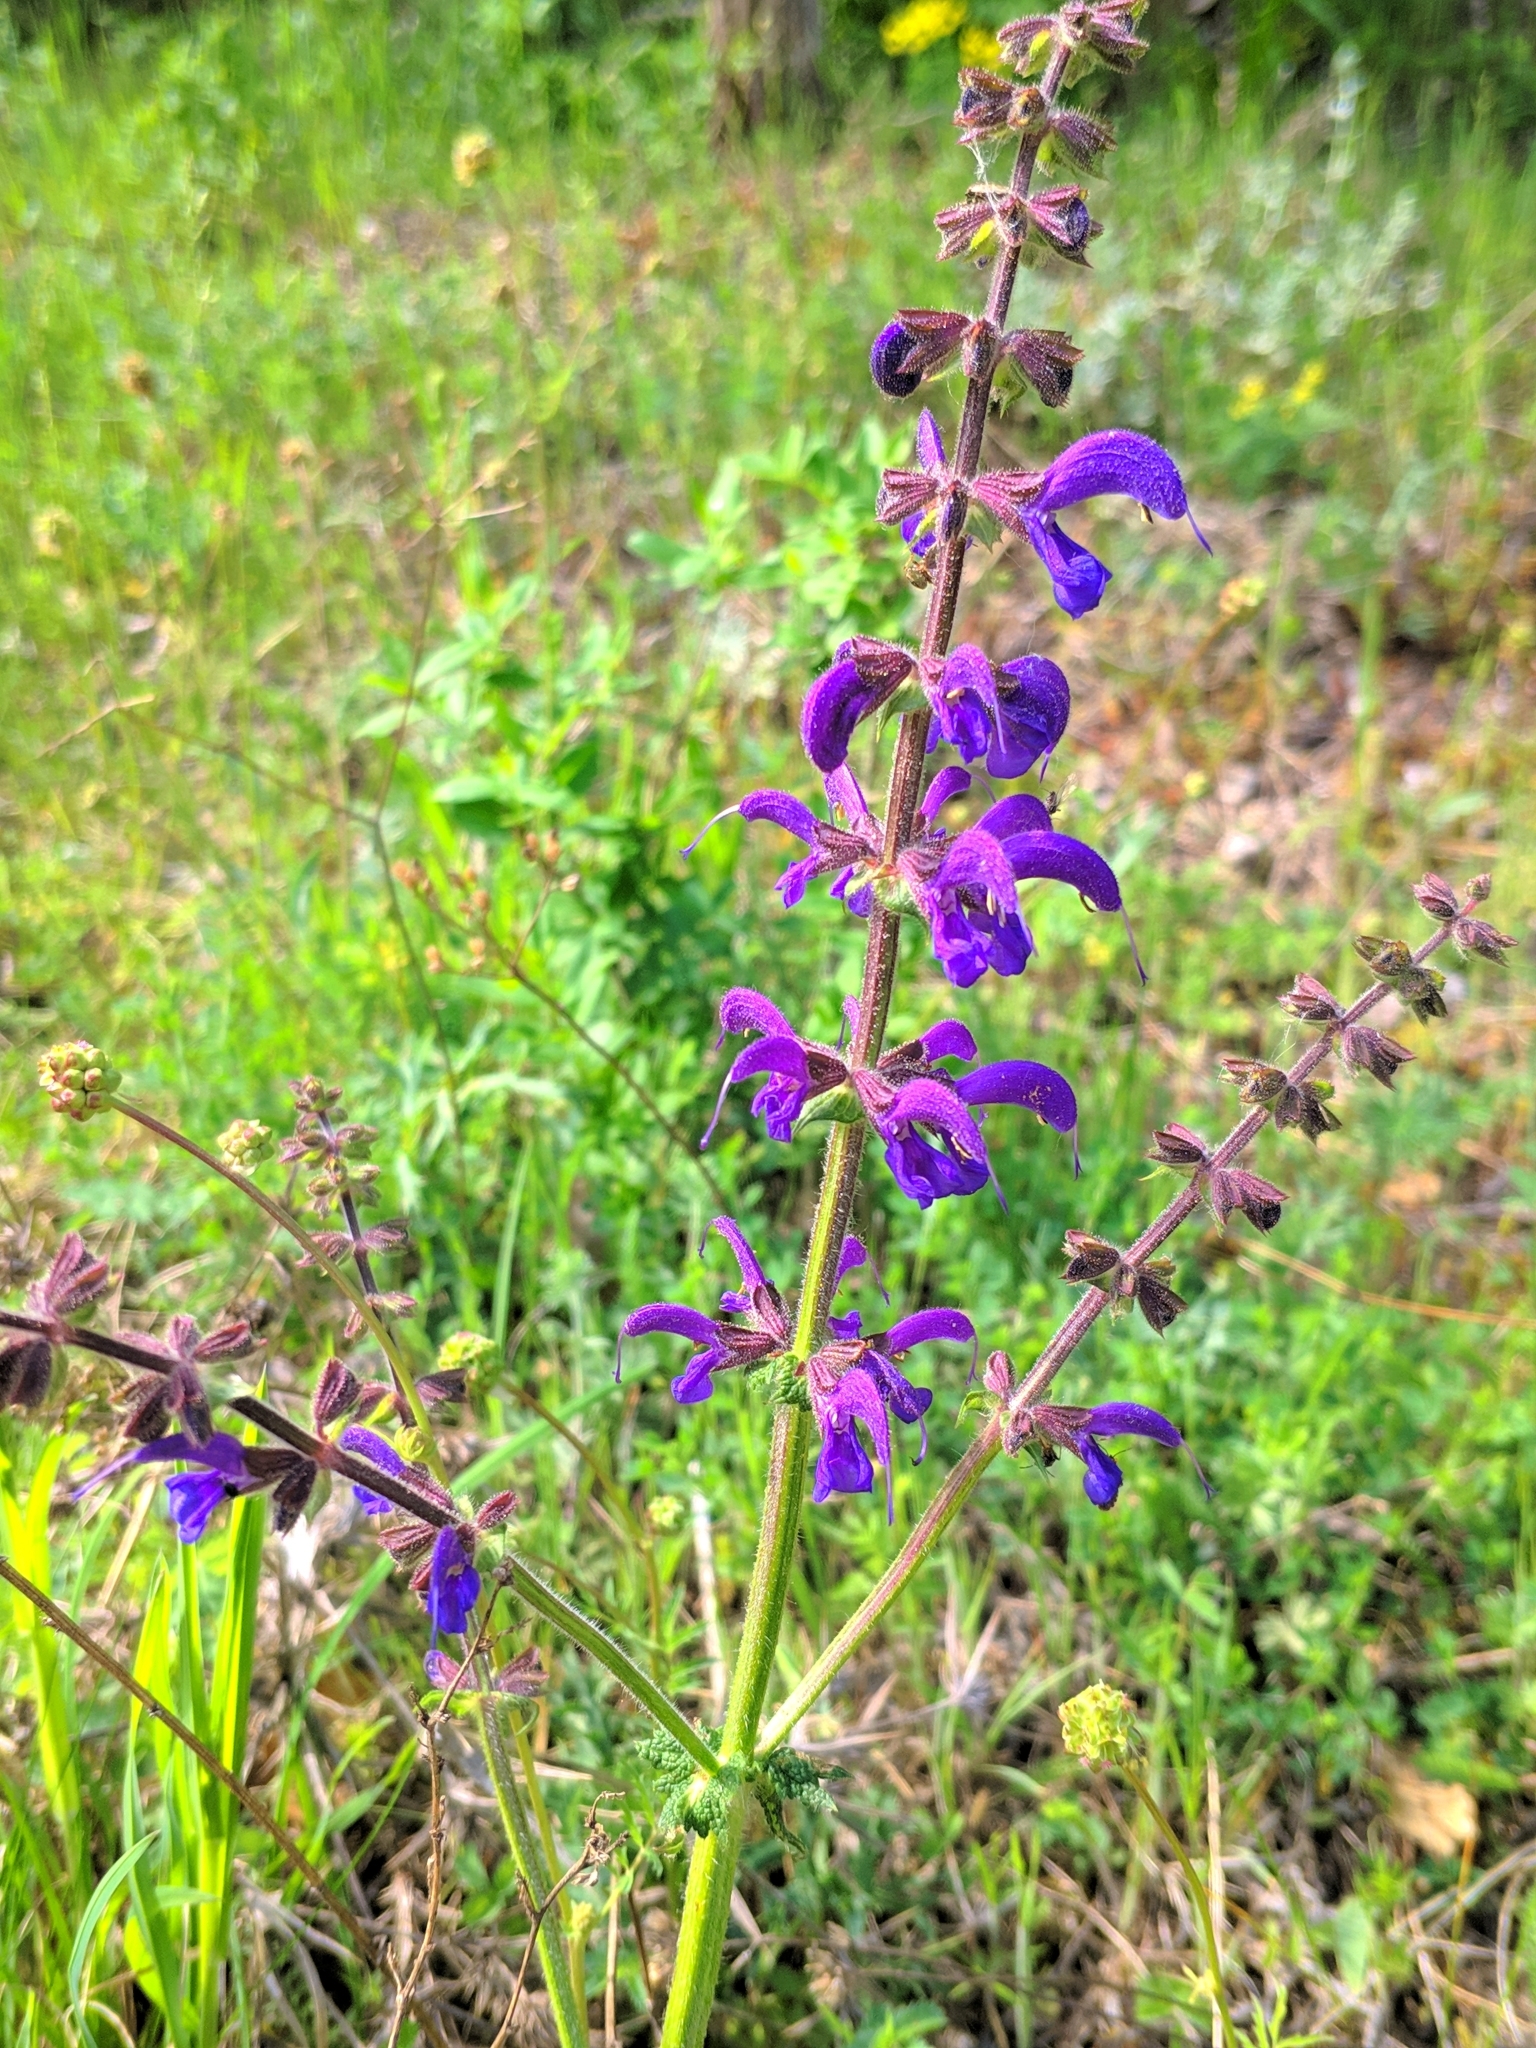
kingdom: Plantae
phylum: Tracheophyta
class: Magnoliopsida
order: Lamiales
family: Lamiaceae
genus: Salvia
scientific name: Salvia pratensis
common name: Meadow sage
